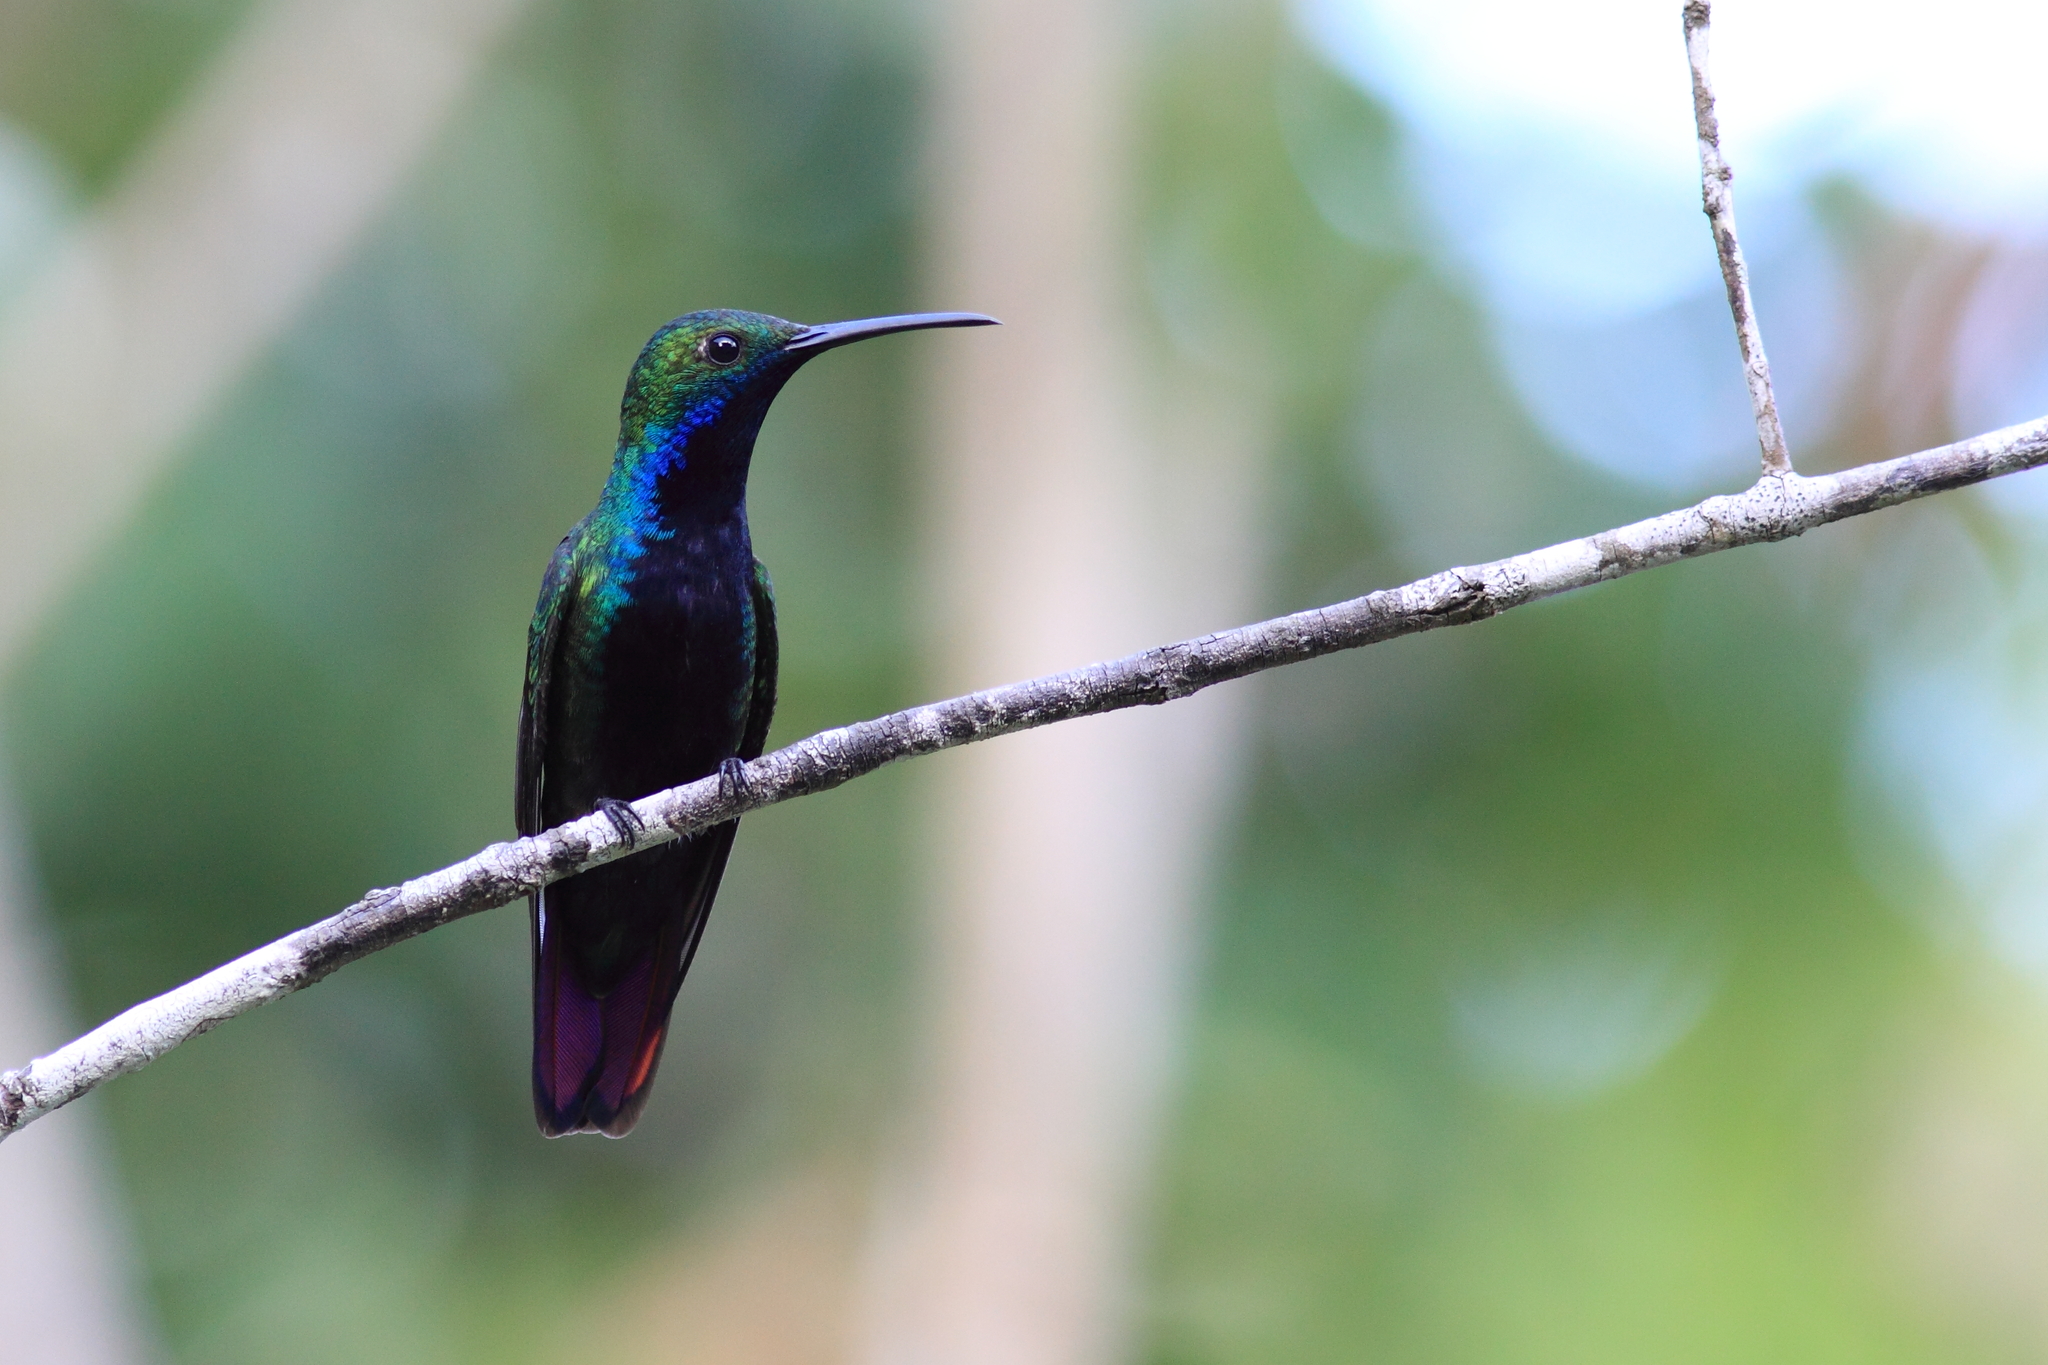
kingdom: Animalia
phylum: Chordata
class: Aves
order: Apodiformes
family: Trochilidae
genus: Anthracothorax
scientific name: Anthracothorax nigricollis
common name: Black-throated mango
